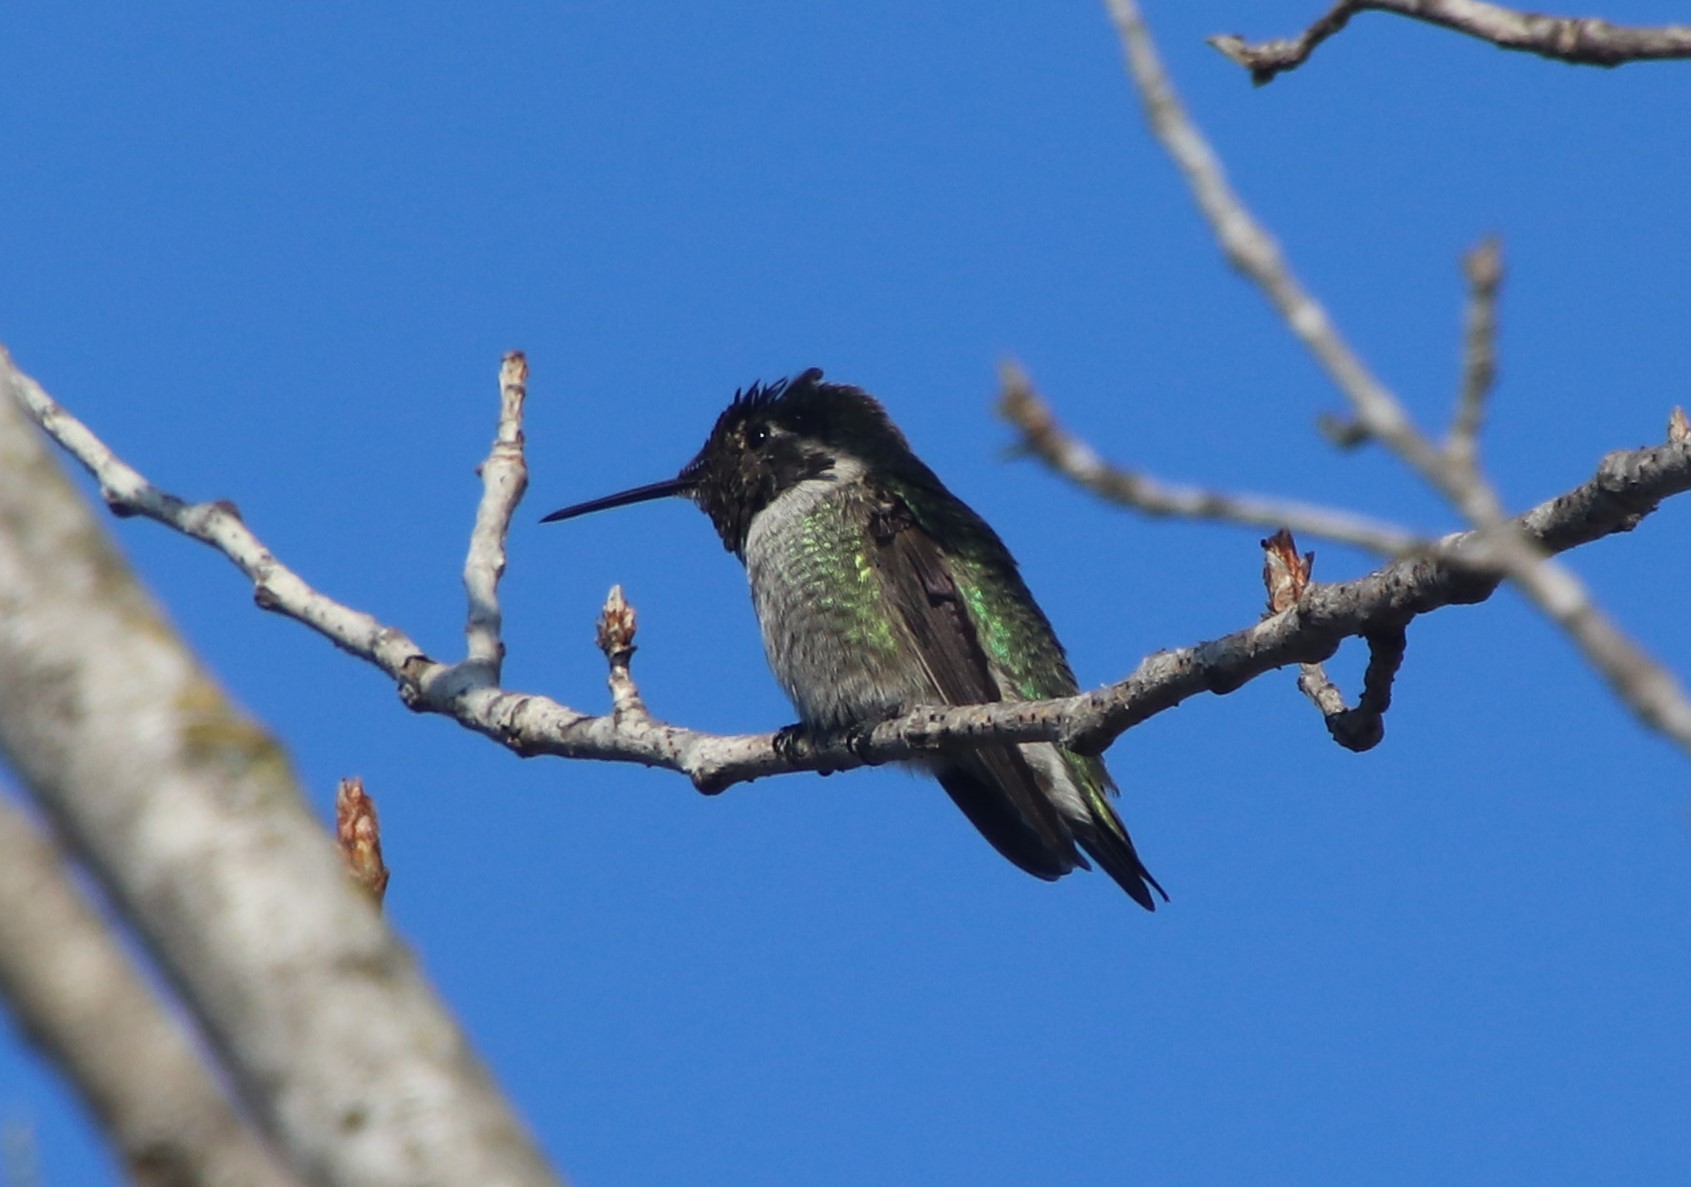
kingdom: Animalia
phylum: Chordata
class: Aves
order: Apodiformes
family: Trochilidae
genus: Calypte
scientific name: Calypte anna
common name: Anna's hummingbird
